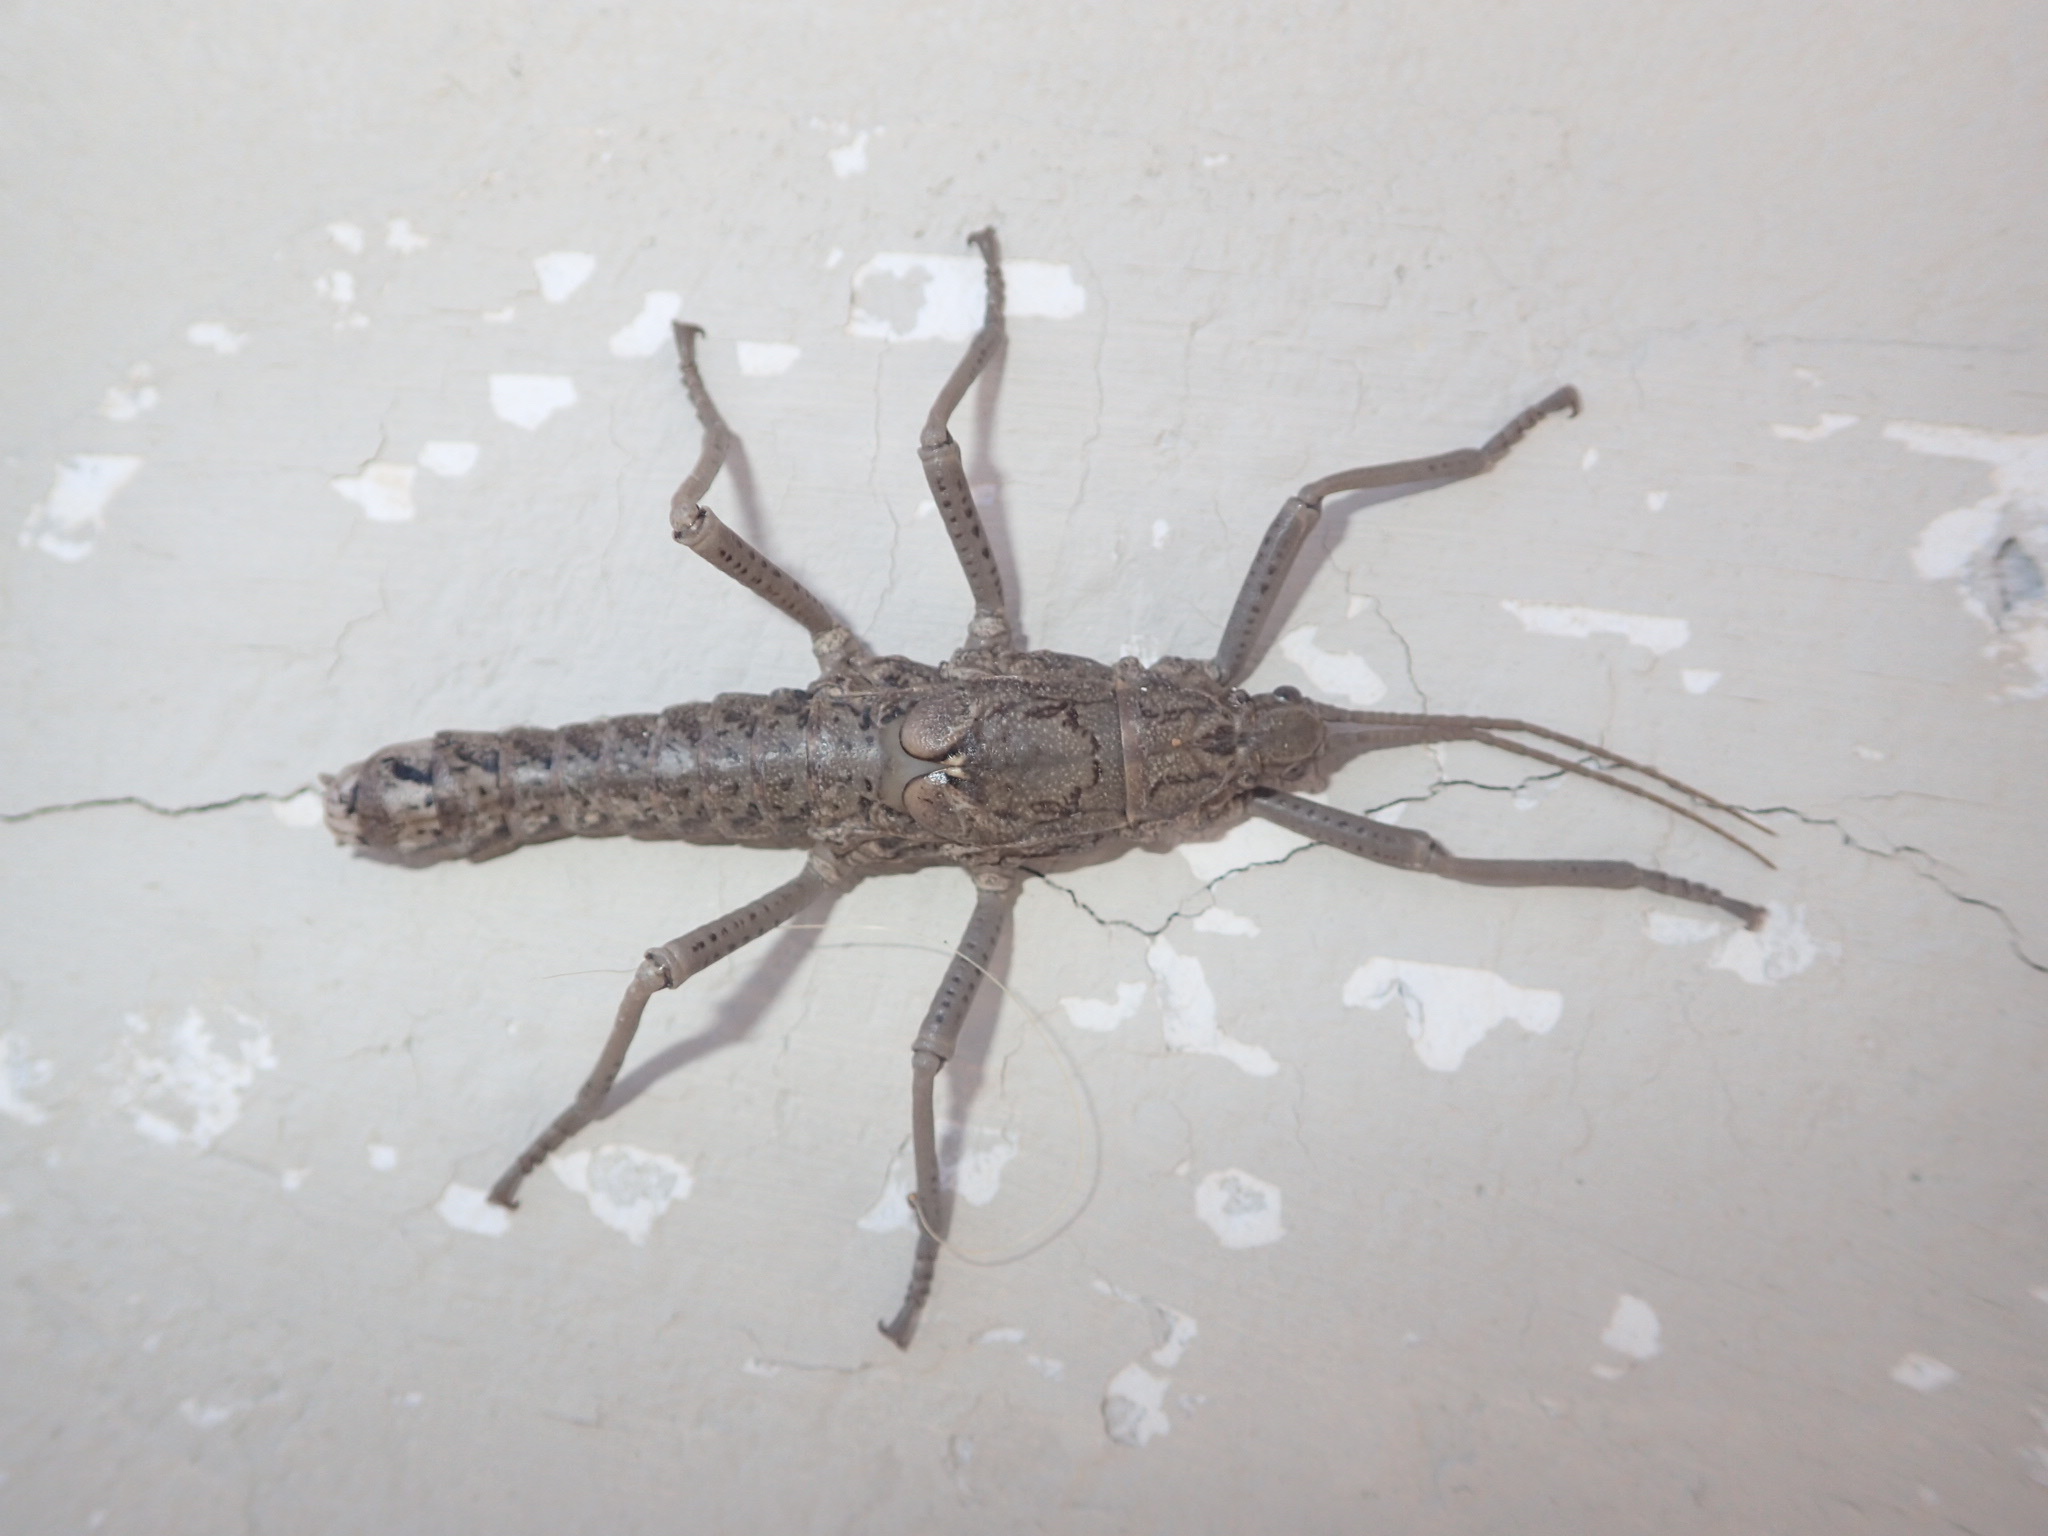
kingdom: Animalia
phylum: Arthropoda
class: Insecta
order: Phasmida
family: Agathemeridae
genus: Agathemera
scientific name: Agathemera luteola
